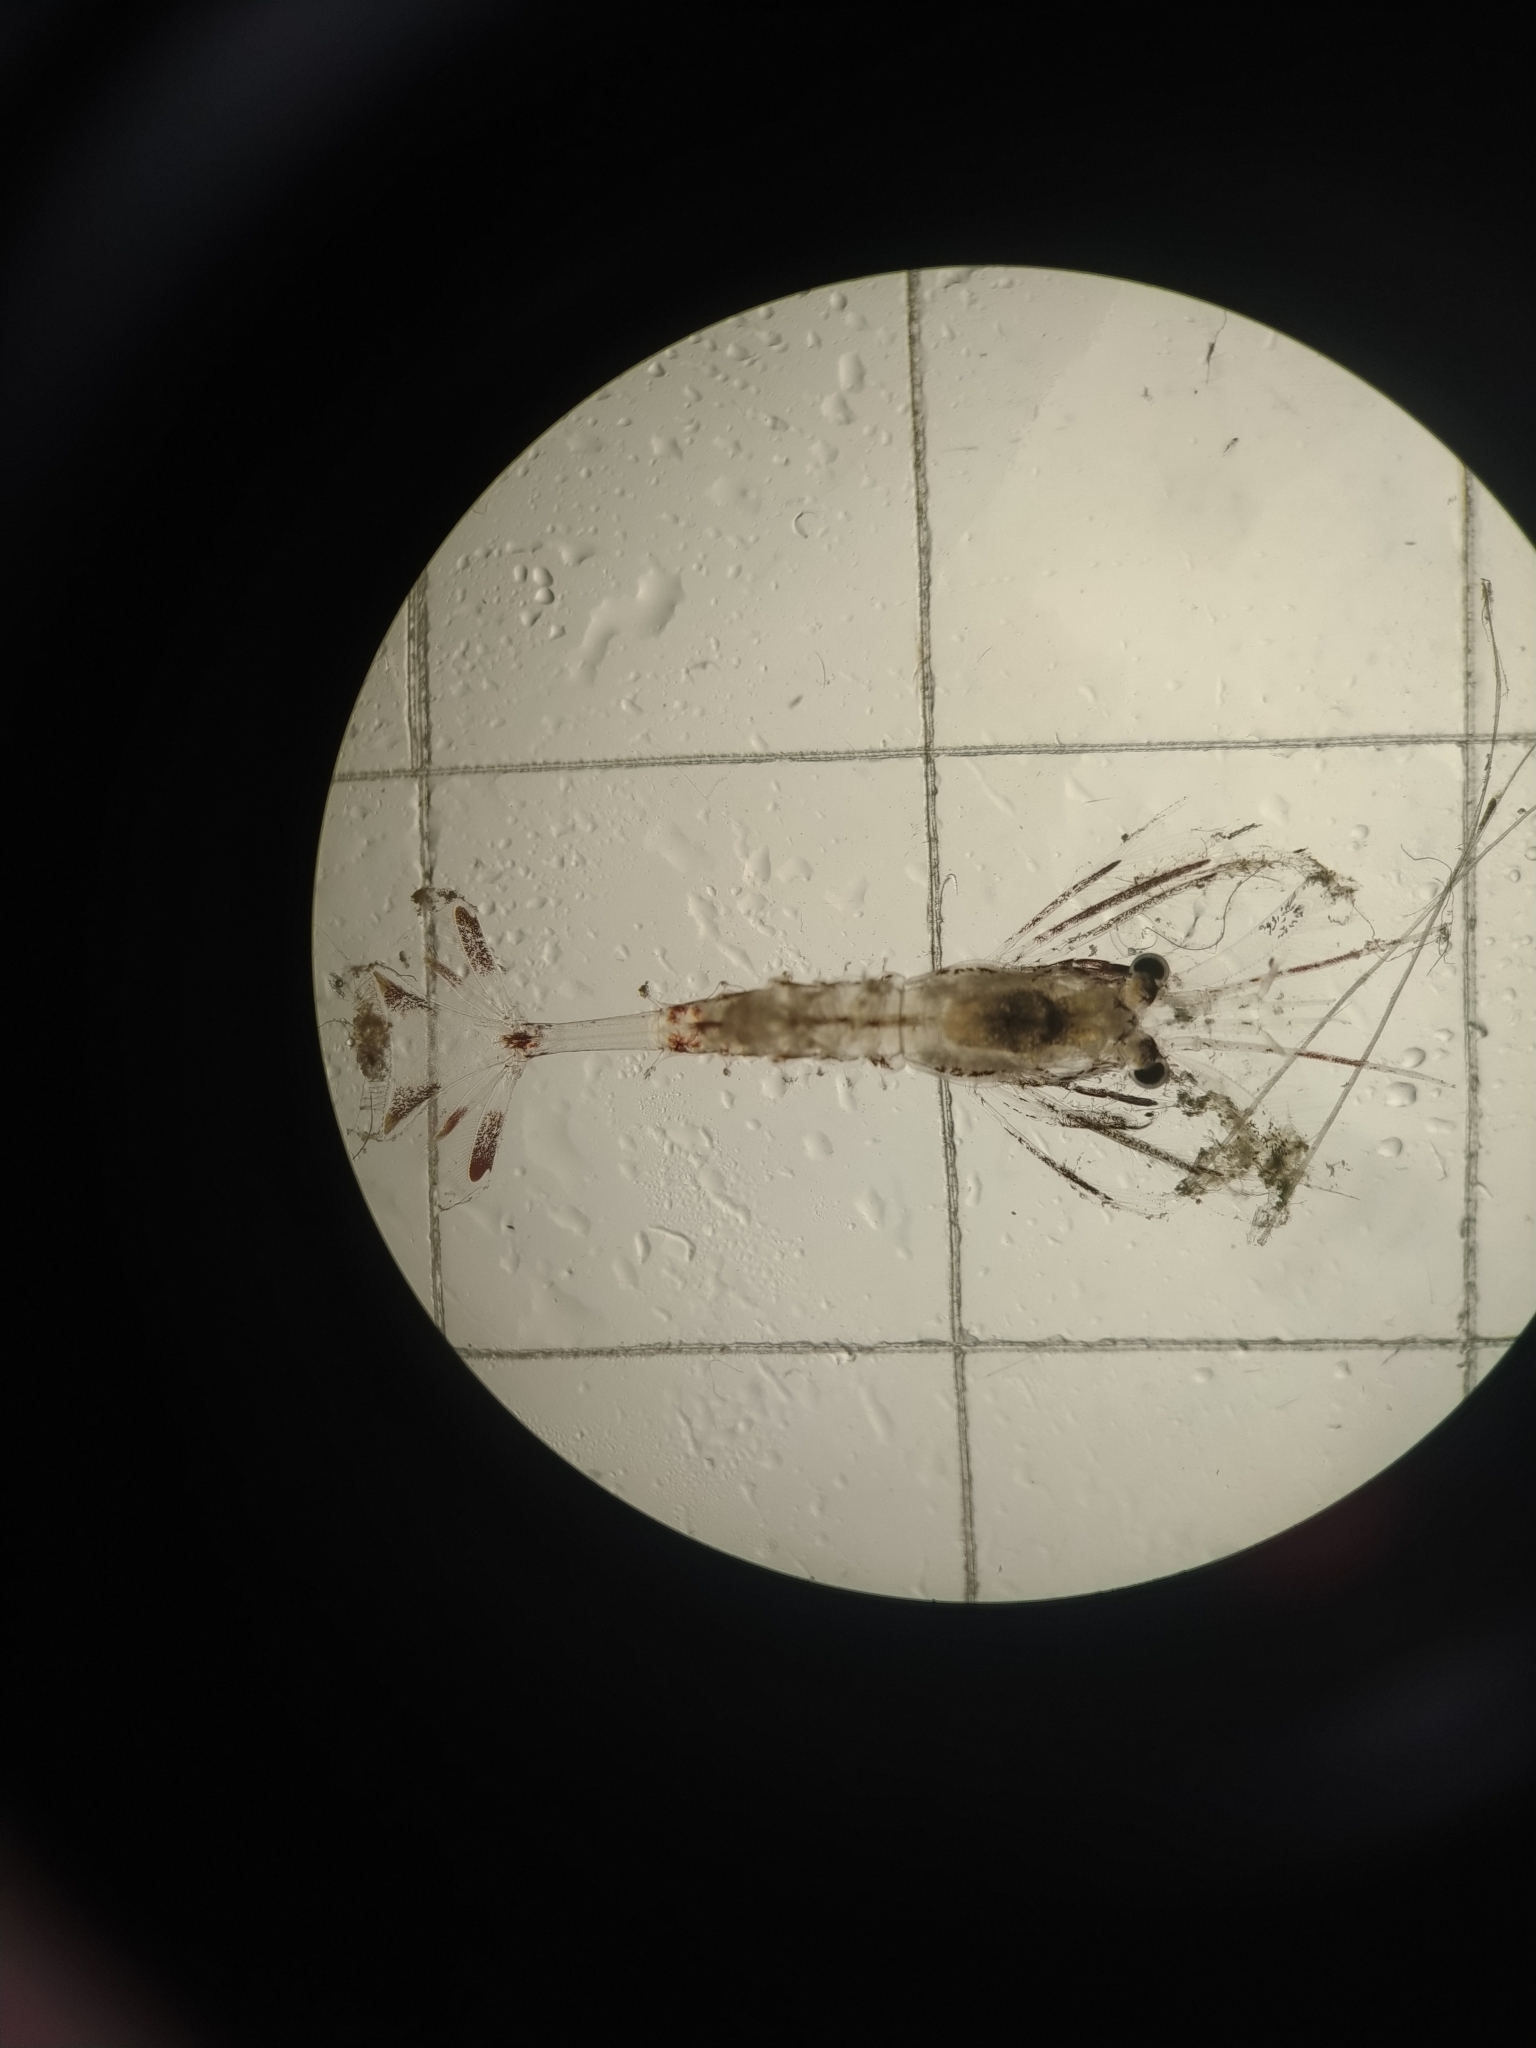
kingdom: Animalia
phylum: Arthropoda
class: Malacostraca
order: Decapoda
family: Crangonidae
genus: Sabinea
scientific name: Sabinea septemcarinata
